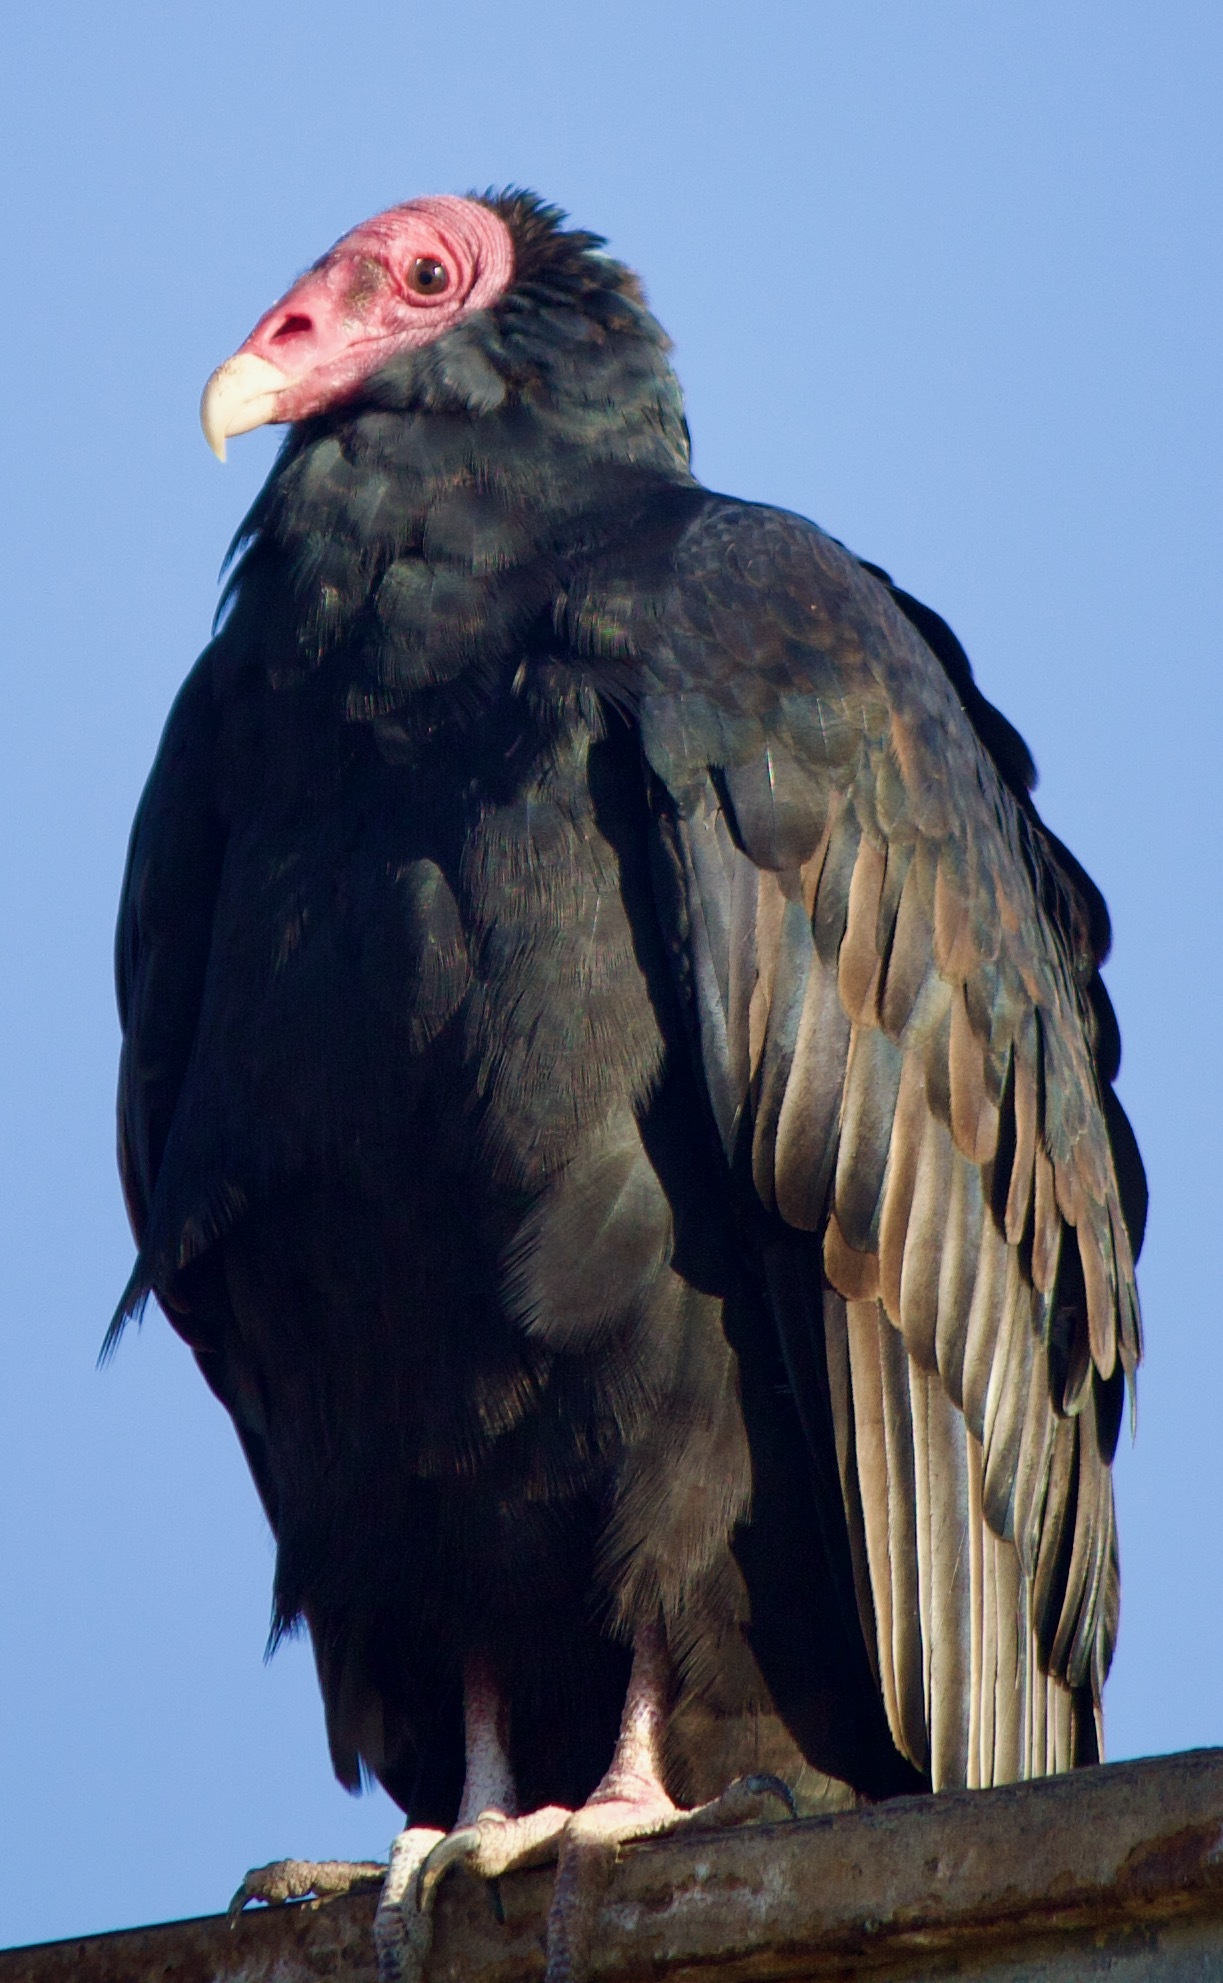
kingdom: Animalia
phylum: Chordata
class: Aves
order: Accipitriformes
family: Cathartidae
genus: Cathartes
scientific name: Cathartes aura
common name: Turkey vulture
